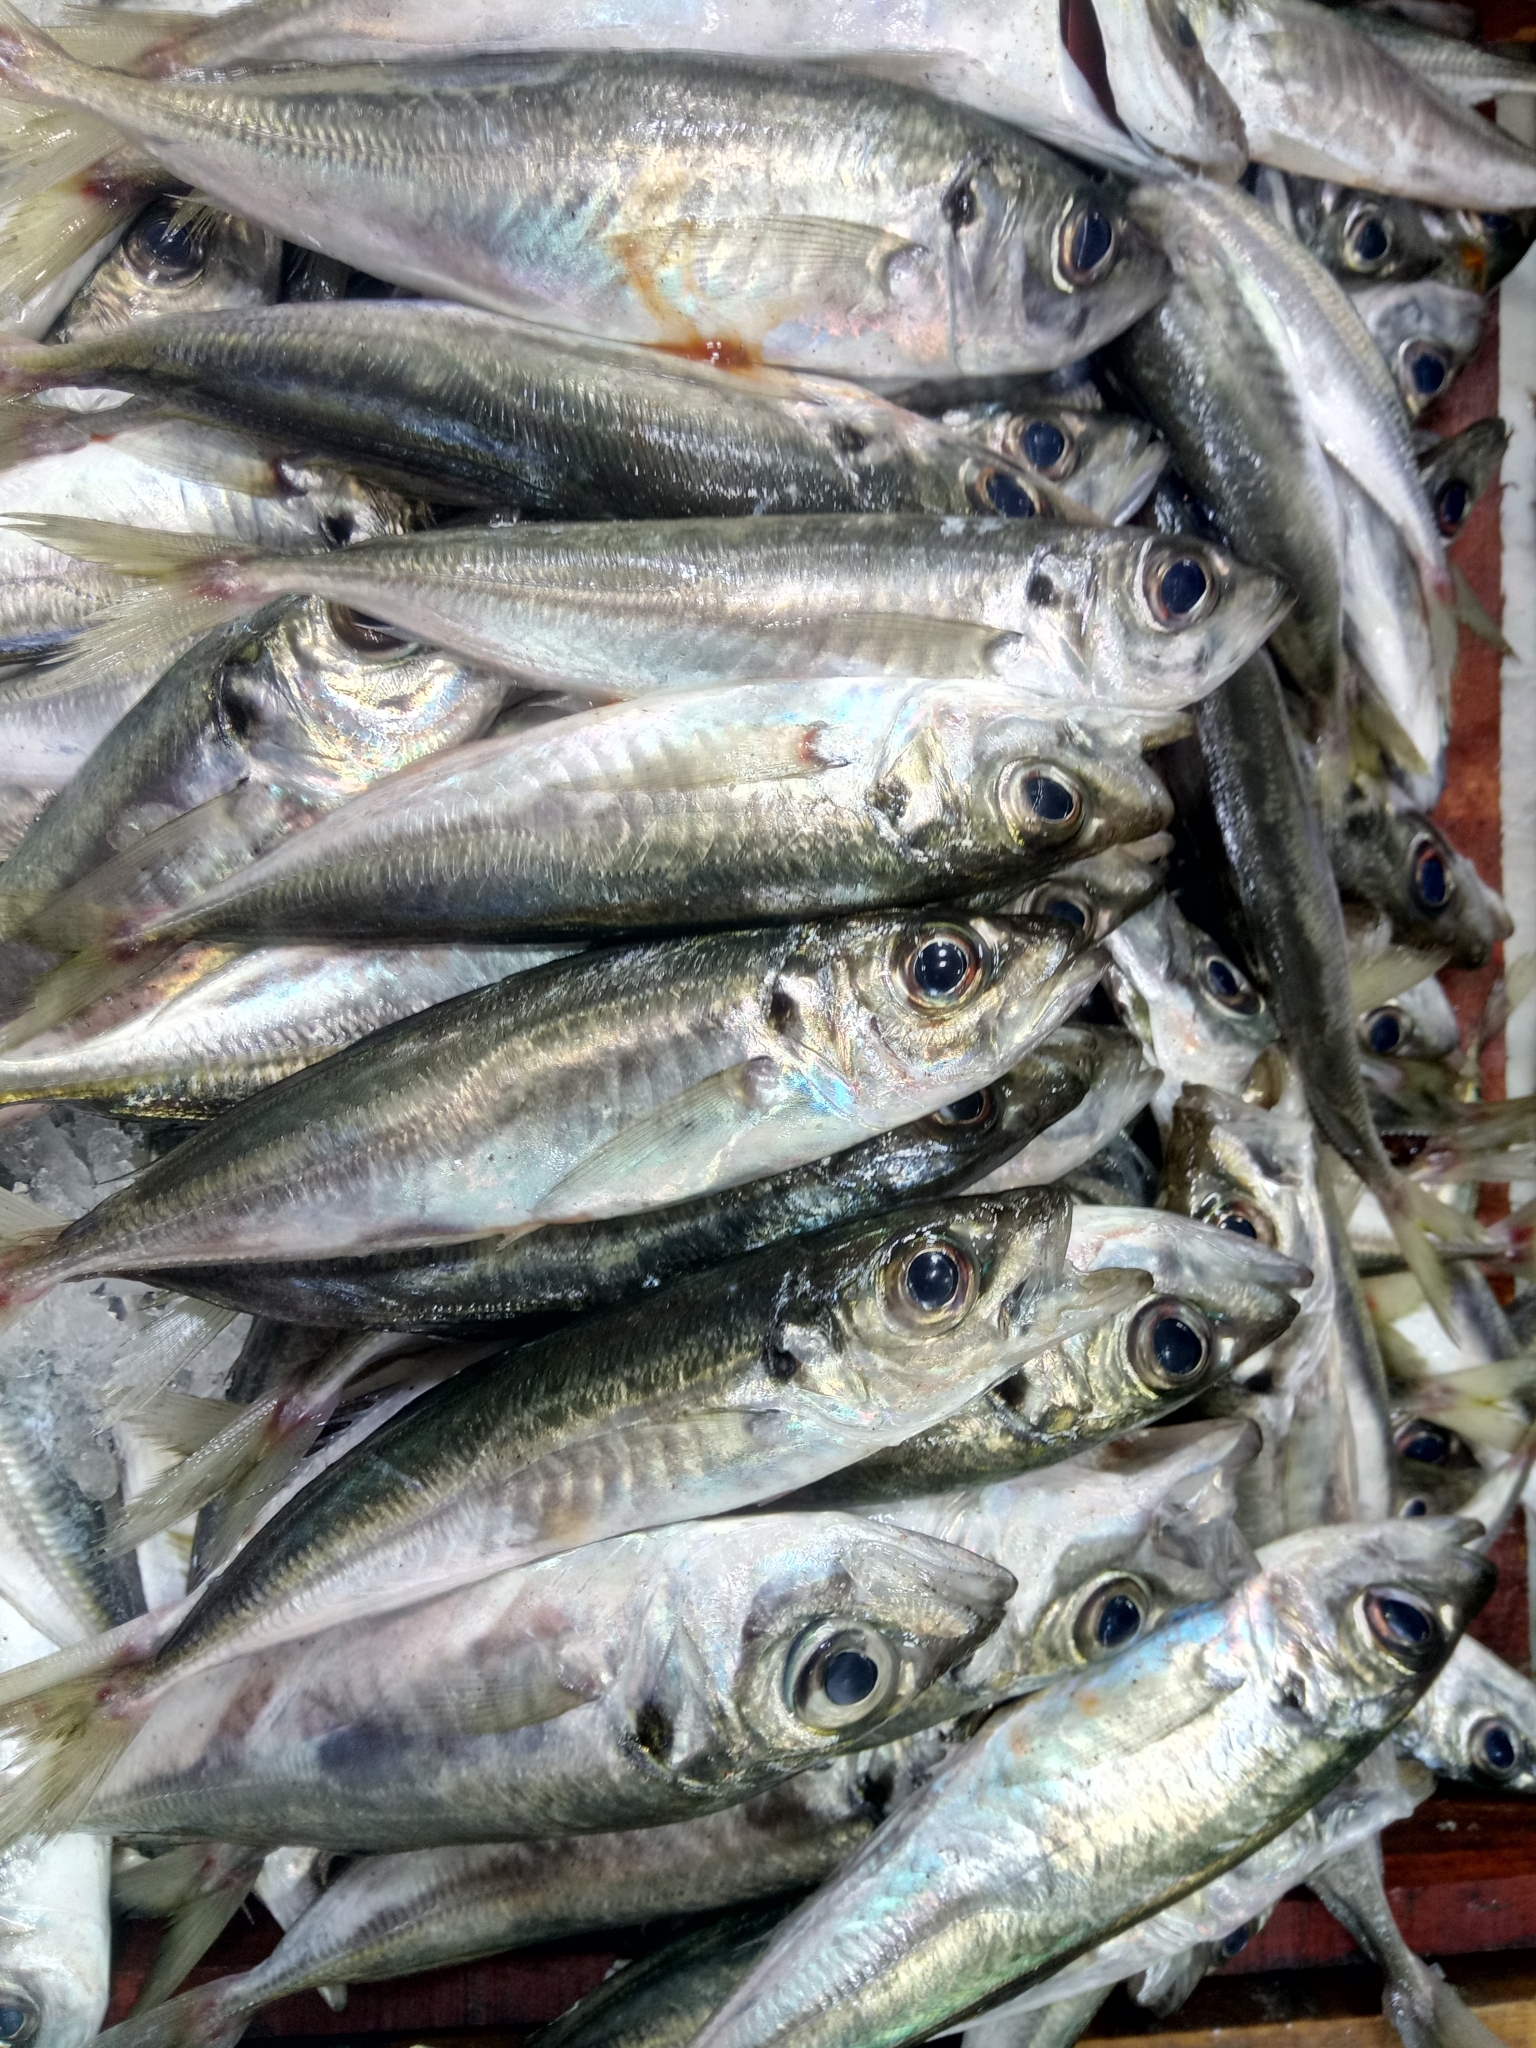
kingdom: Animalia
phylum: Chordata
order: Perciformes
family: Carangidae
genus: Trachurus
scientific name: Trachurus mediterraneus
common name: Mediterranean scad
